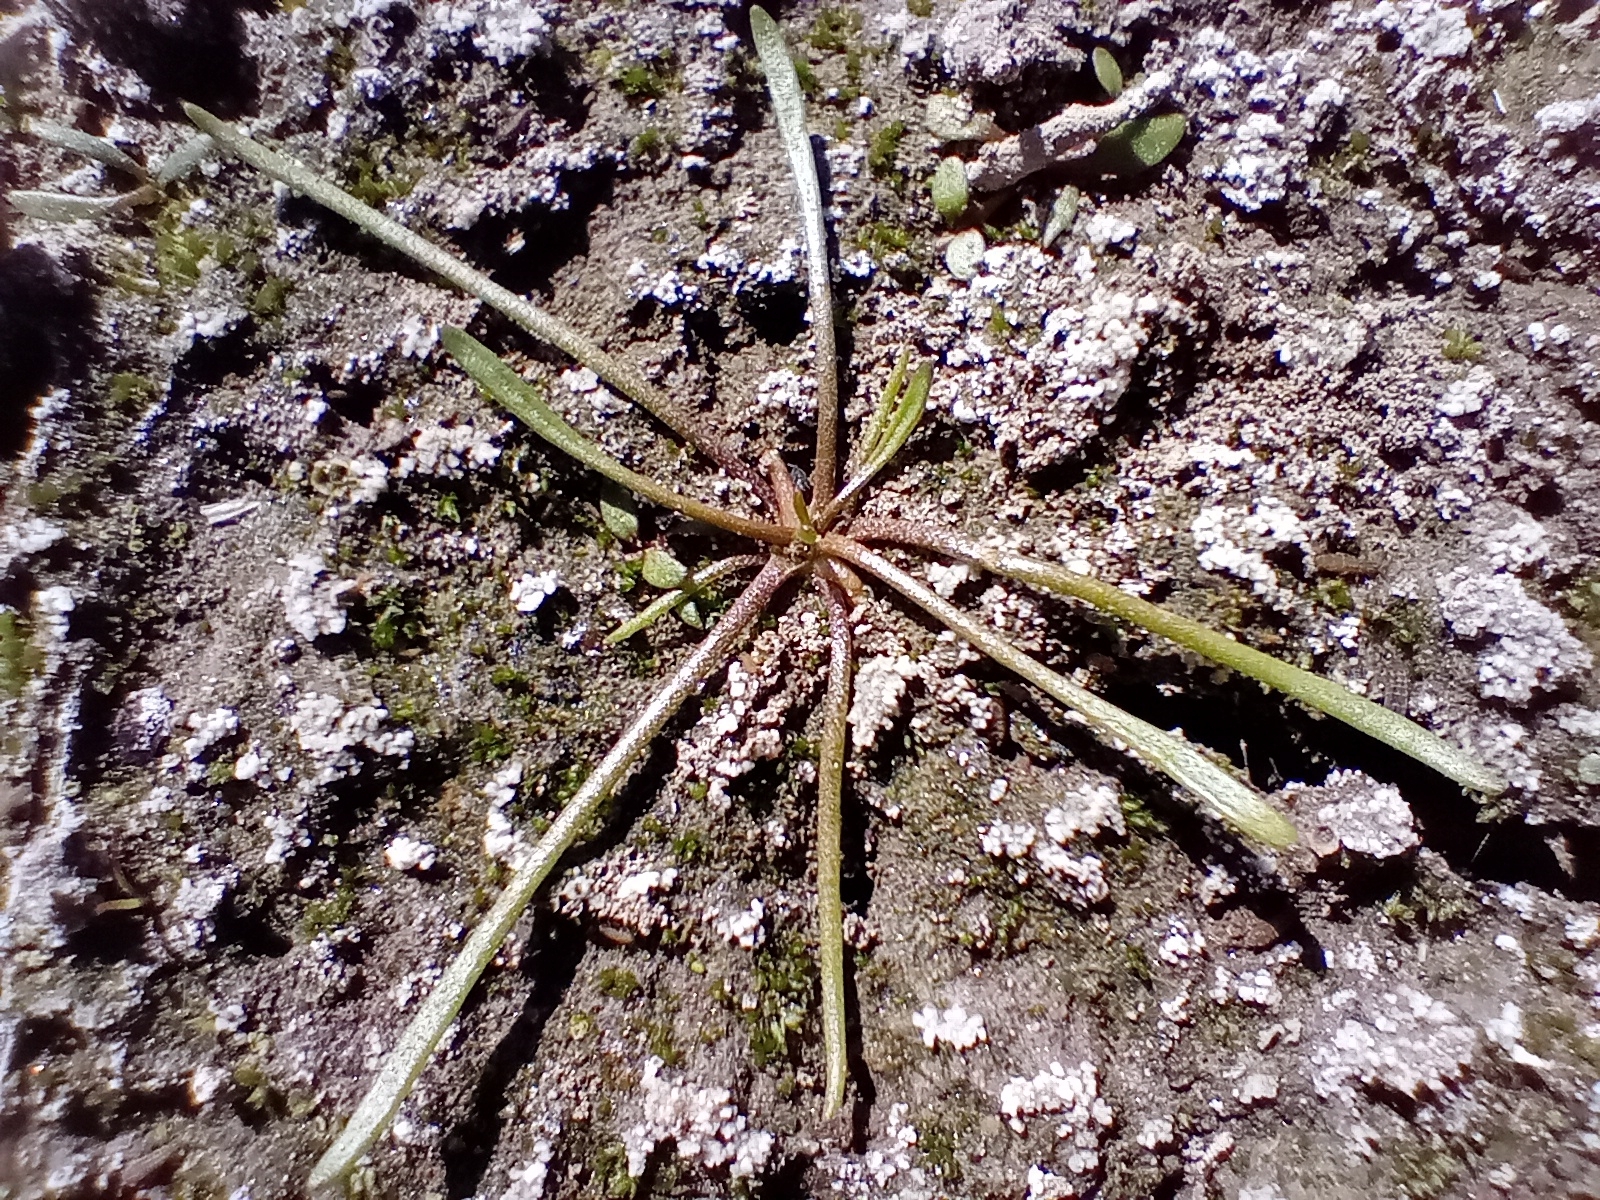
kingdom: Plantae
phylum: Tracheophyta
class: Magnoliopsida
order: Lamiales
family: Scrophulariaceae
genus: Limosella
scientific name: Limosella australis
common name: Welsh mudwort
